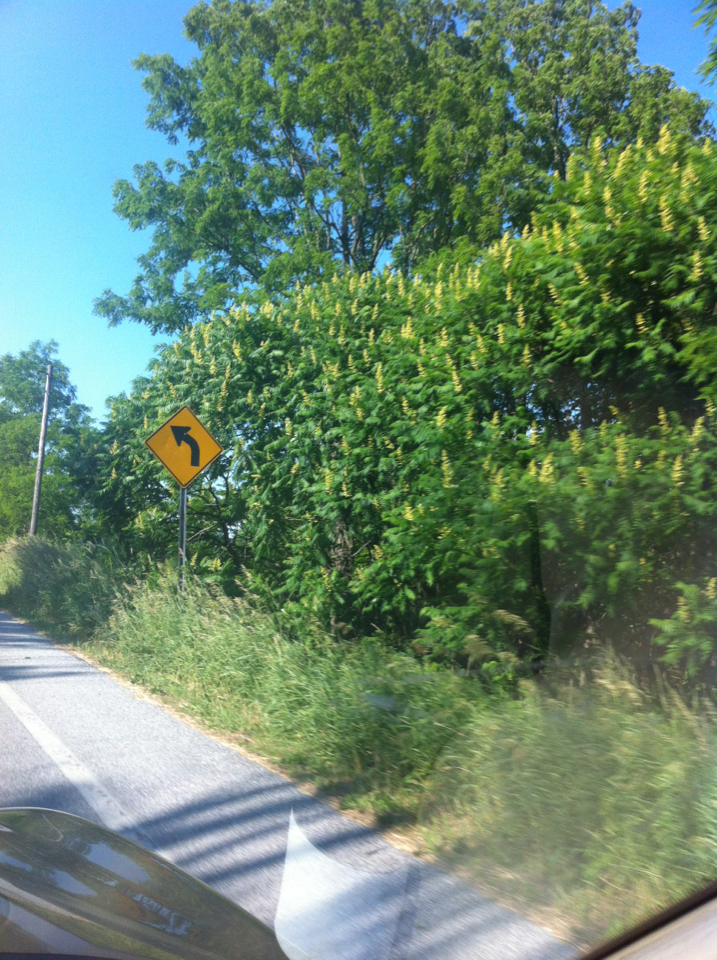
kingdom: Plantae
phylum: Tracheophyta
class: Magnoliopsida
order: Sapindales
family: Anacardiaceae
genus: Rhus
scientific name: Rhus typhina
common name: Staghorn sumac
